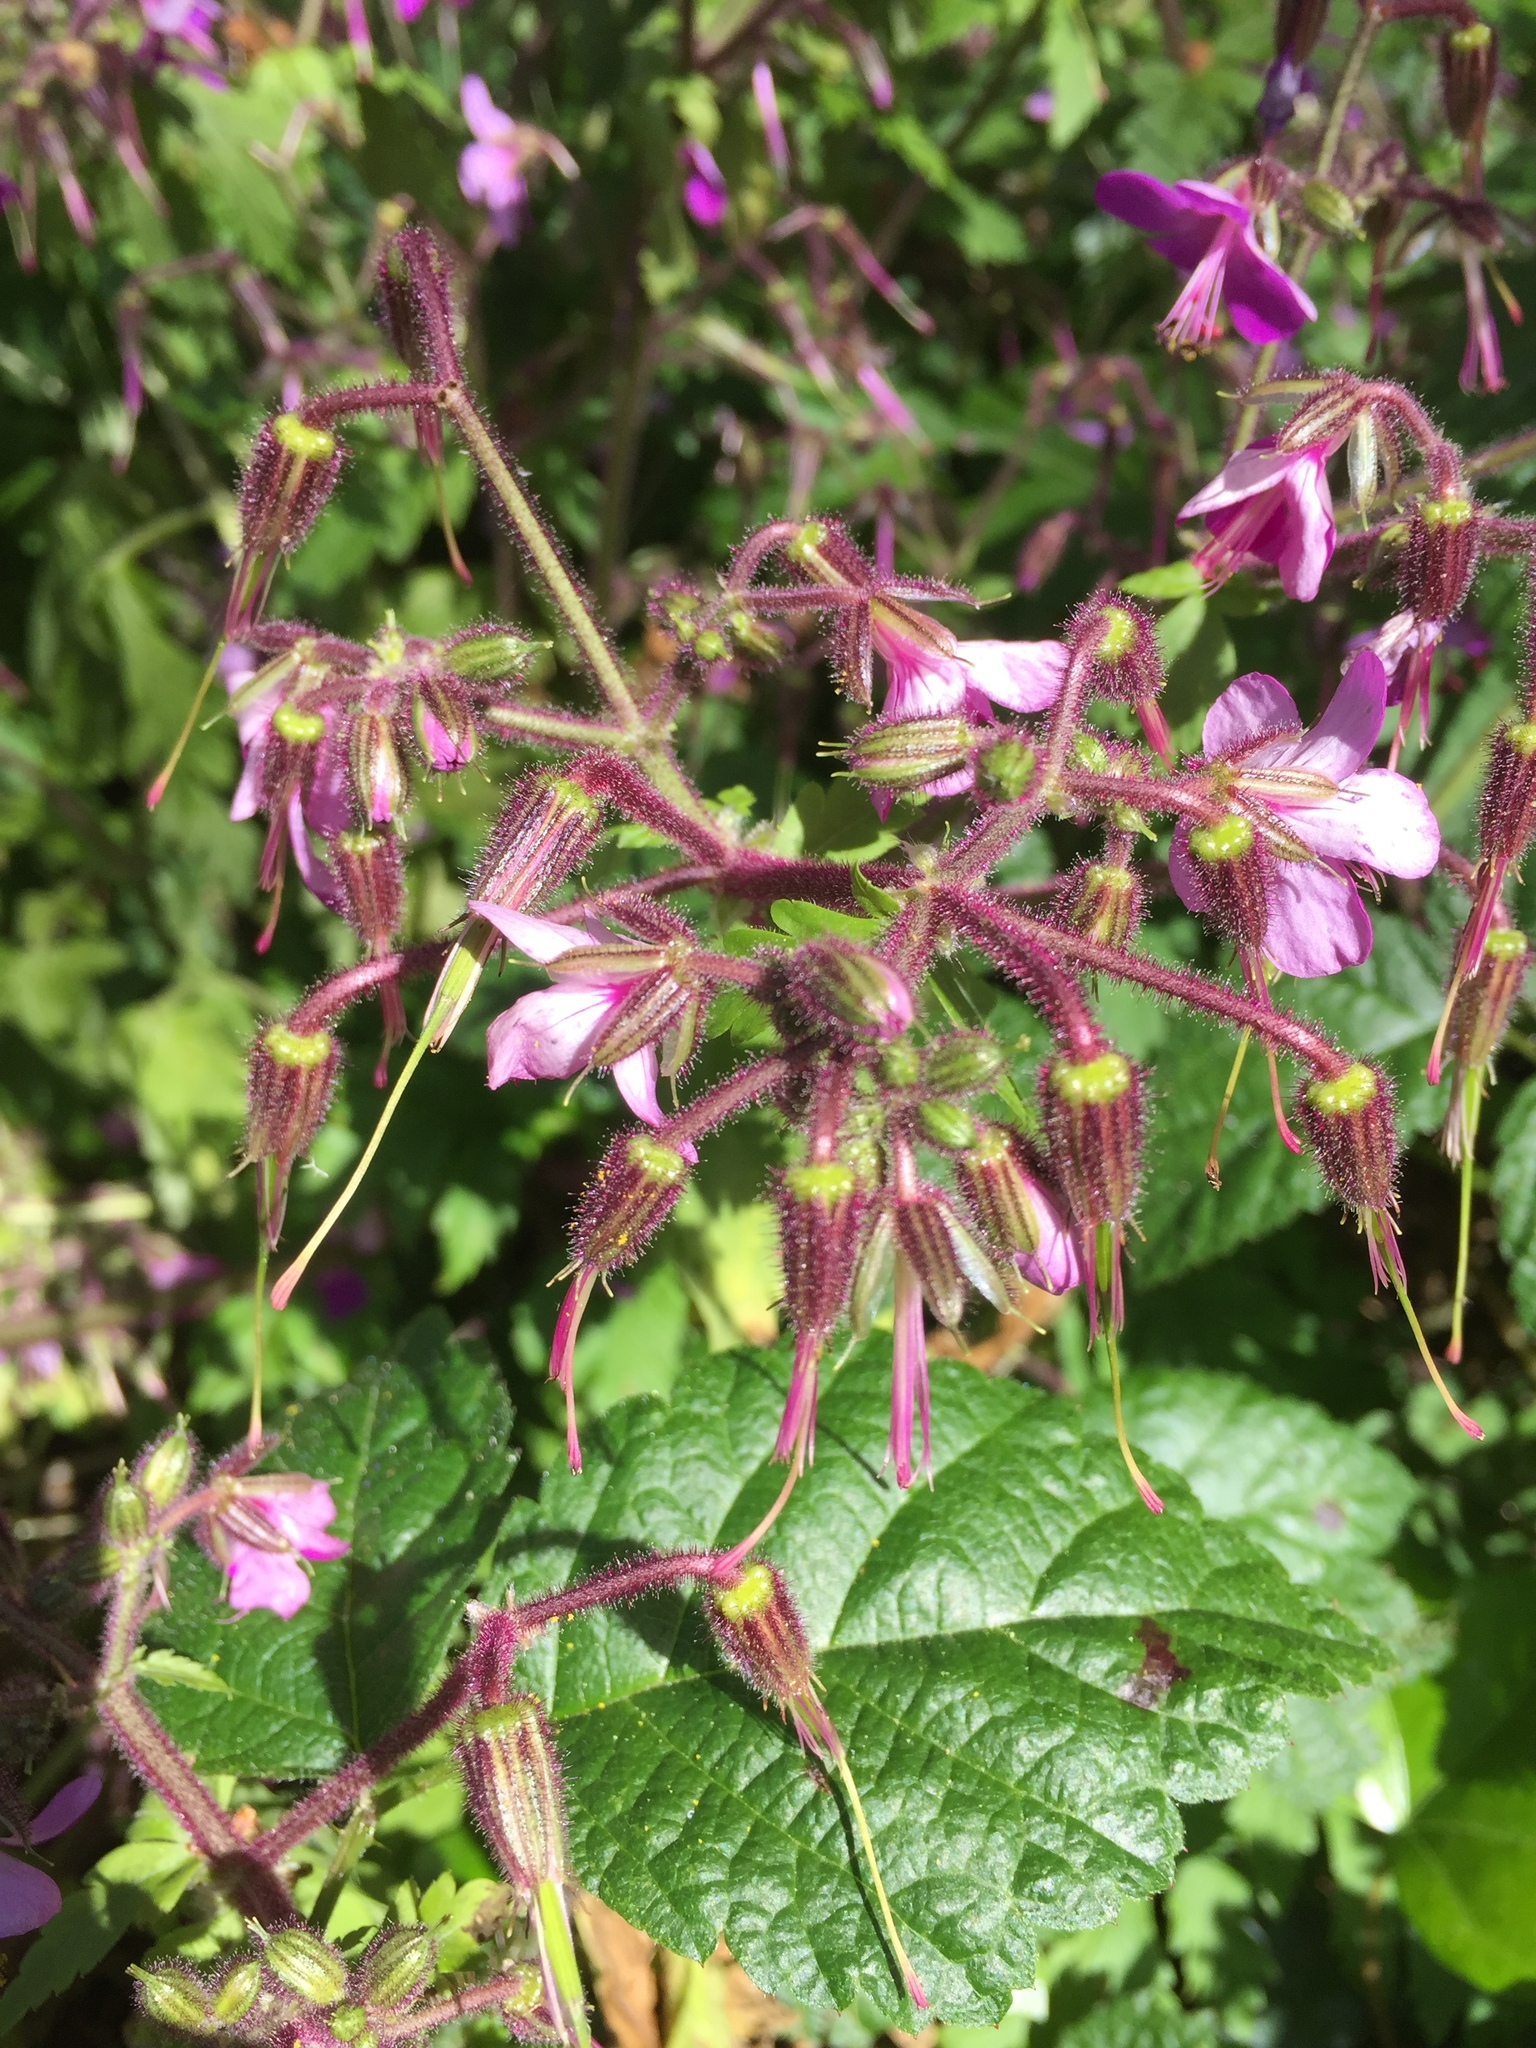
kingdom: Plantae
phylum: Tracheophyta
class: Magnoliopsida
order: Geraniales
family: Geraniaceae
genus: Geranium
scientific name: Geranium reuteri
